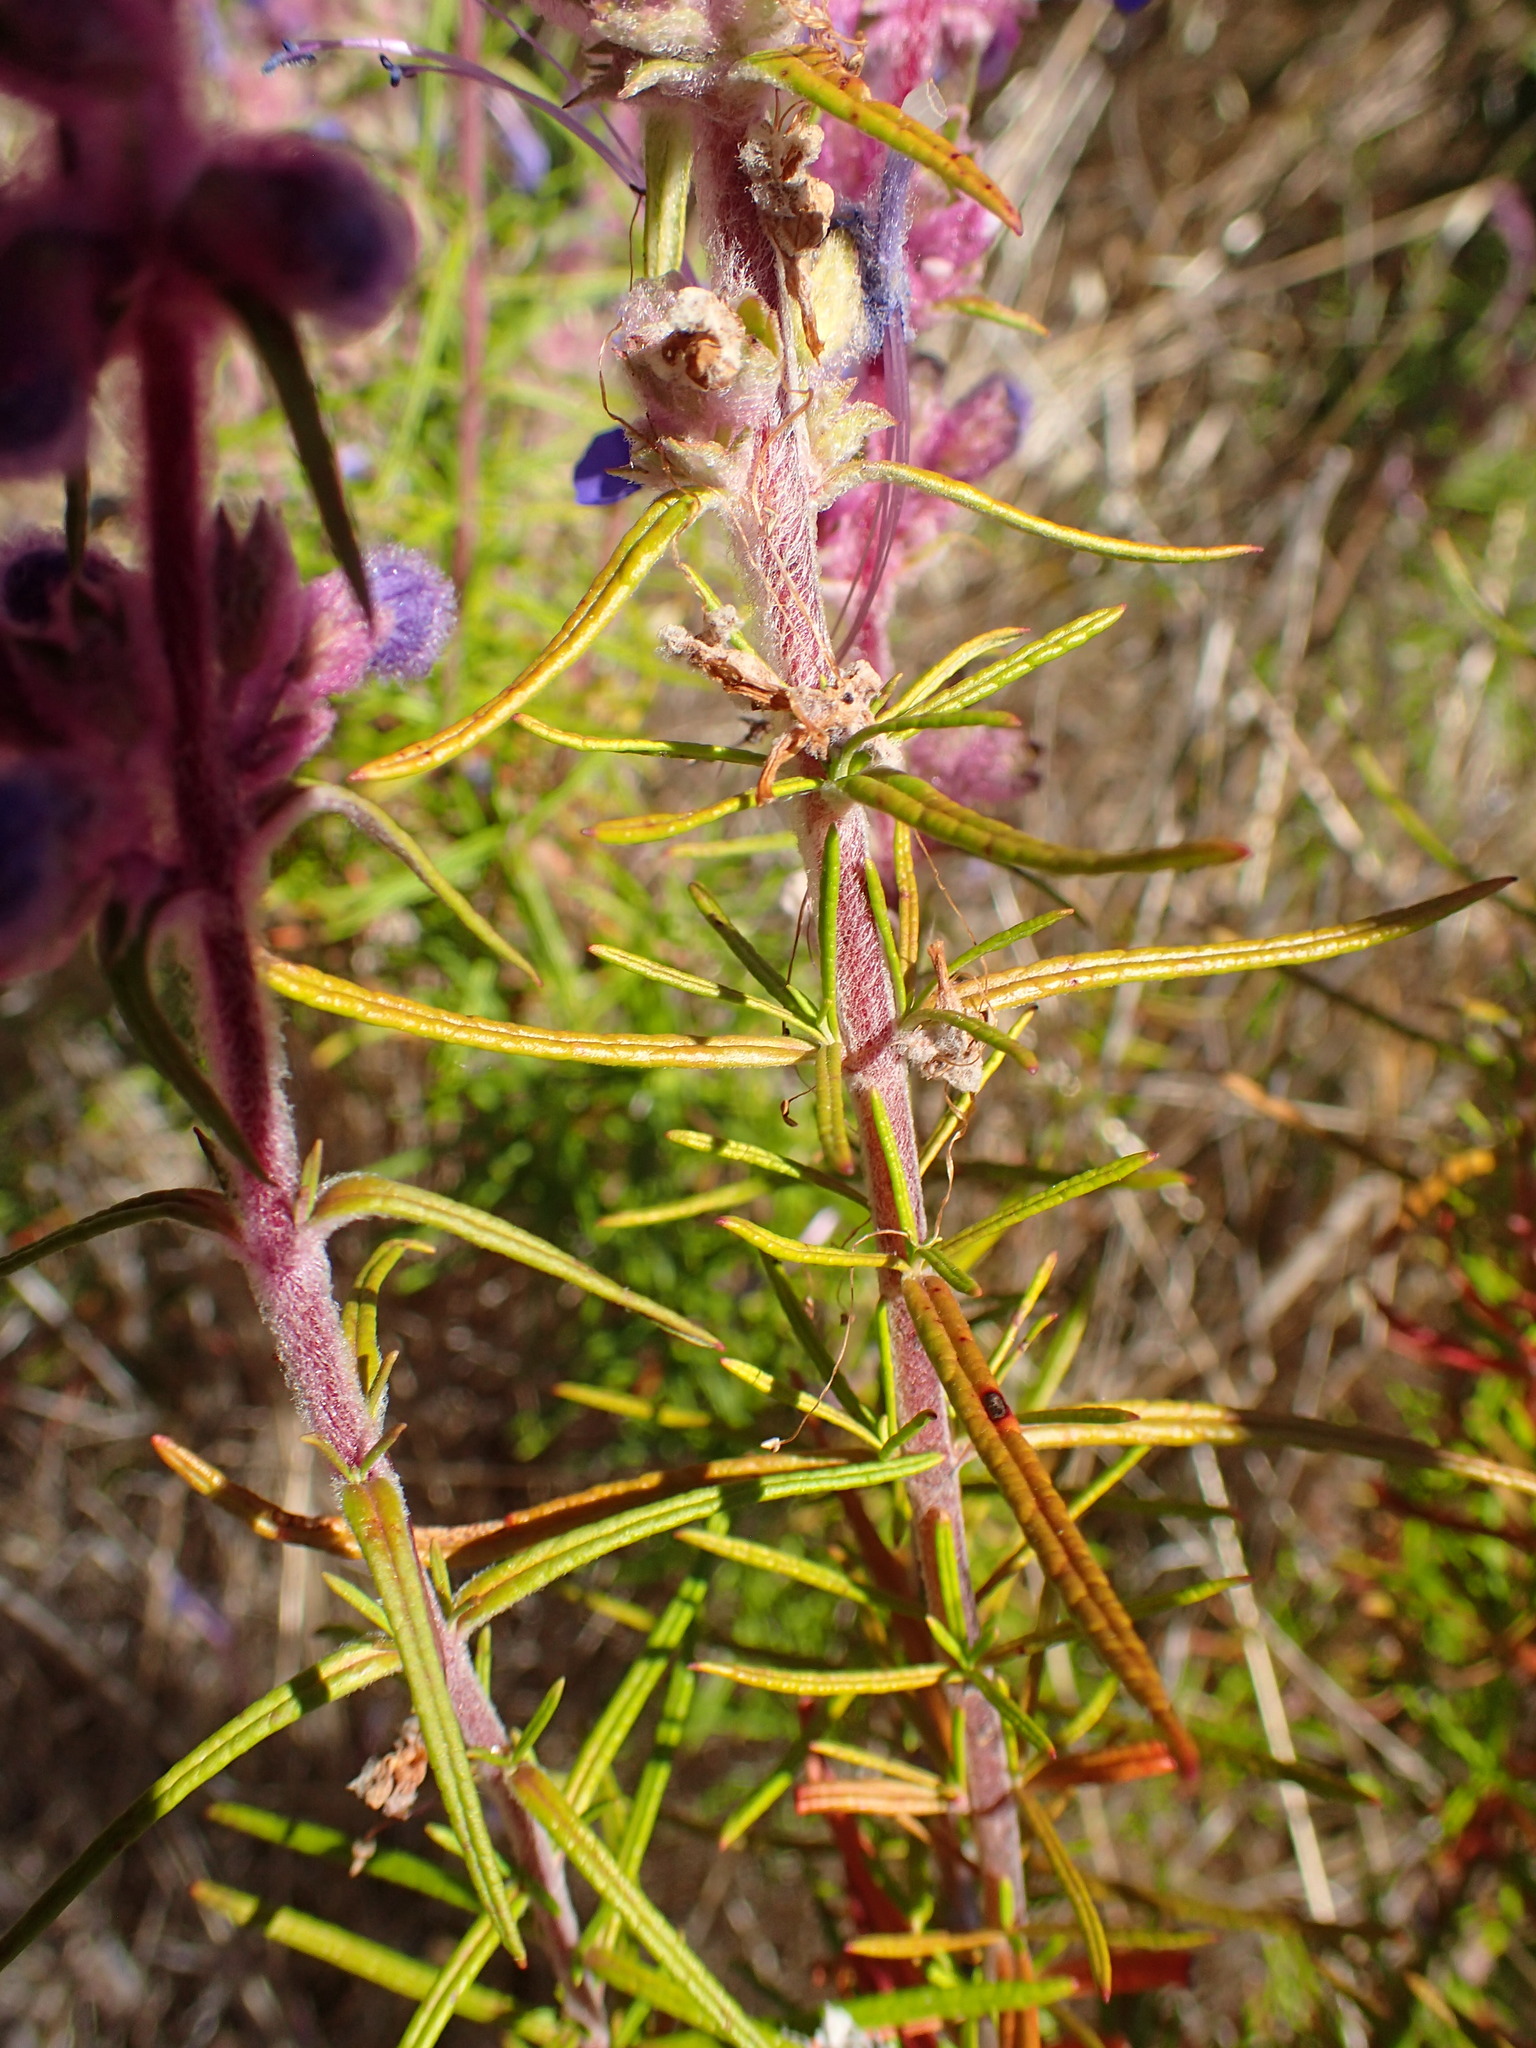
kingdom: Plantae
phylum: Tracheophyta
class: Magnoliopsida
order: Lamiales
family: Lamiaceae
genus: Trichostema
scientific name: Trichostema lanatum
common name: Woolly bluecurls
